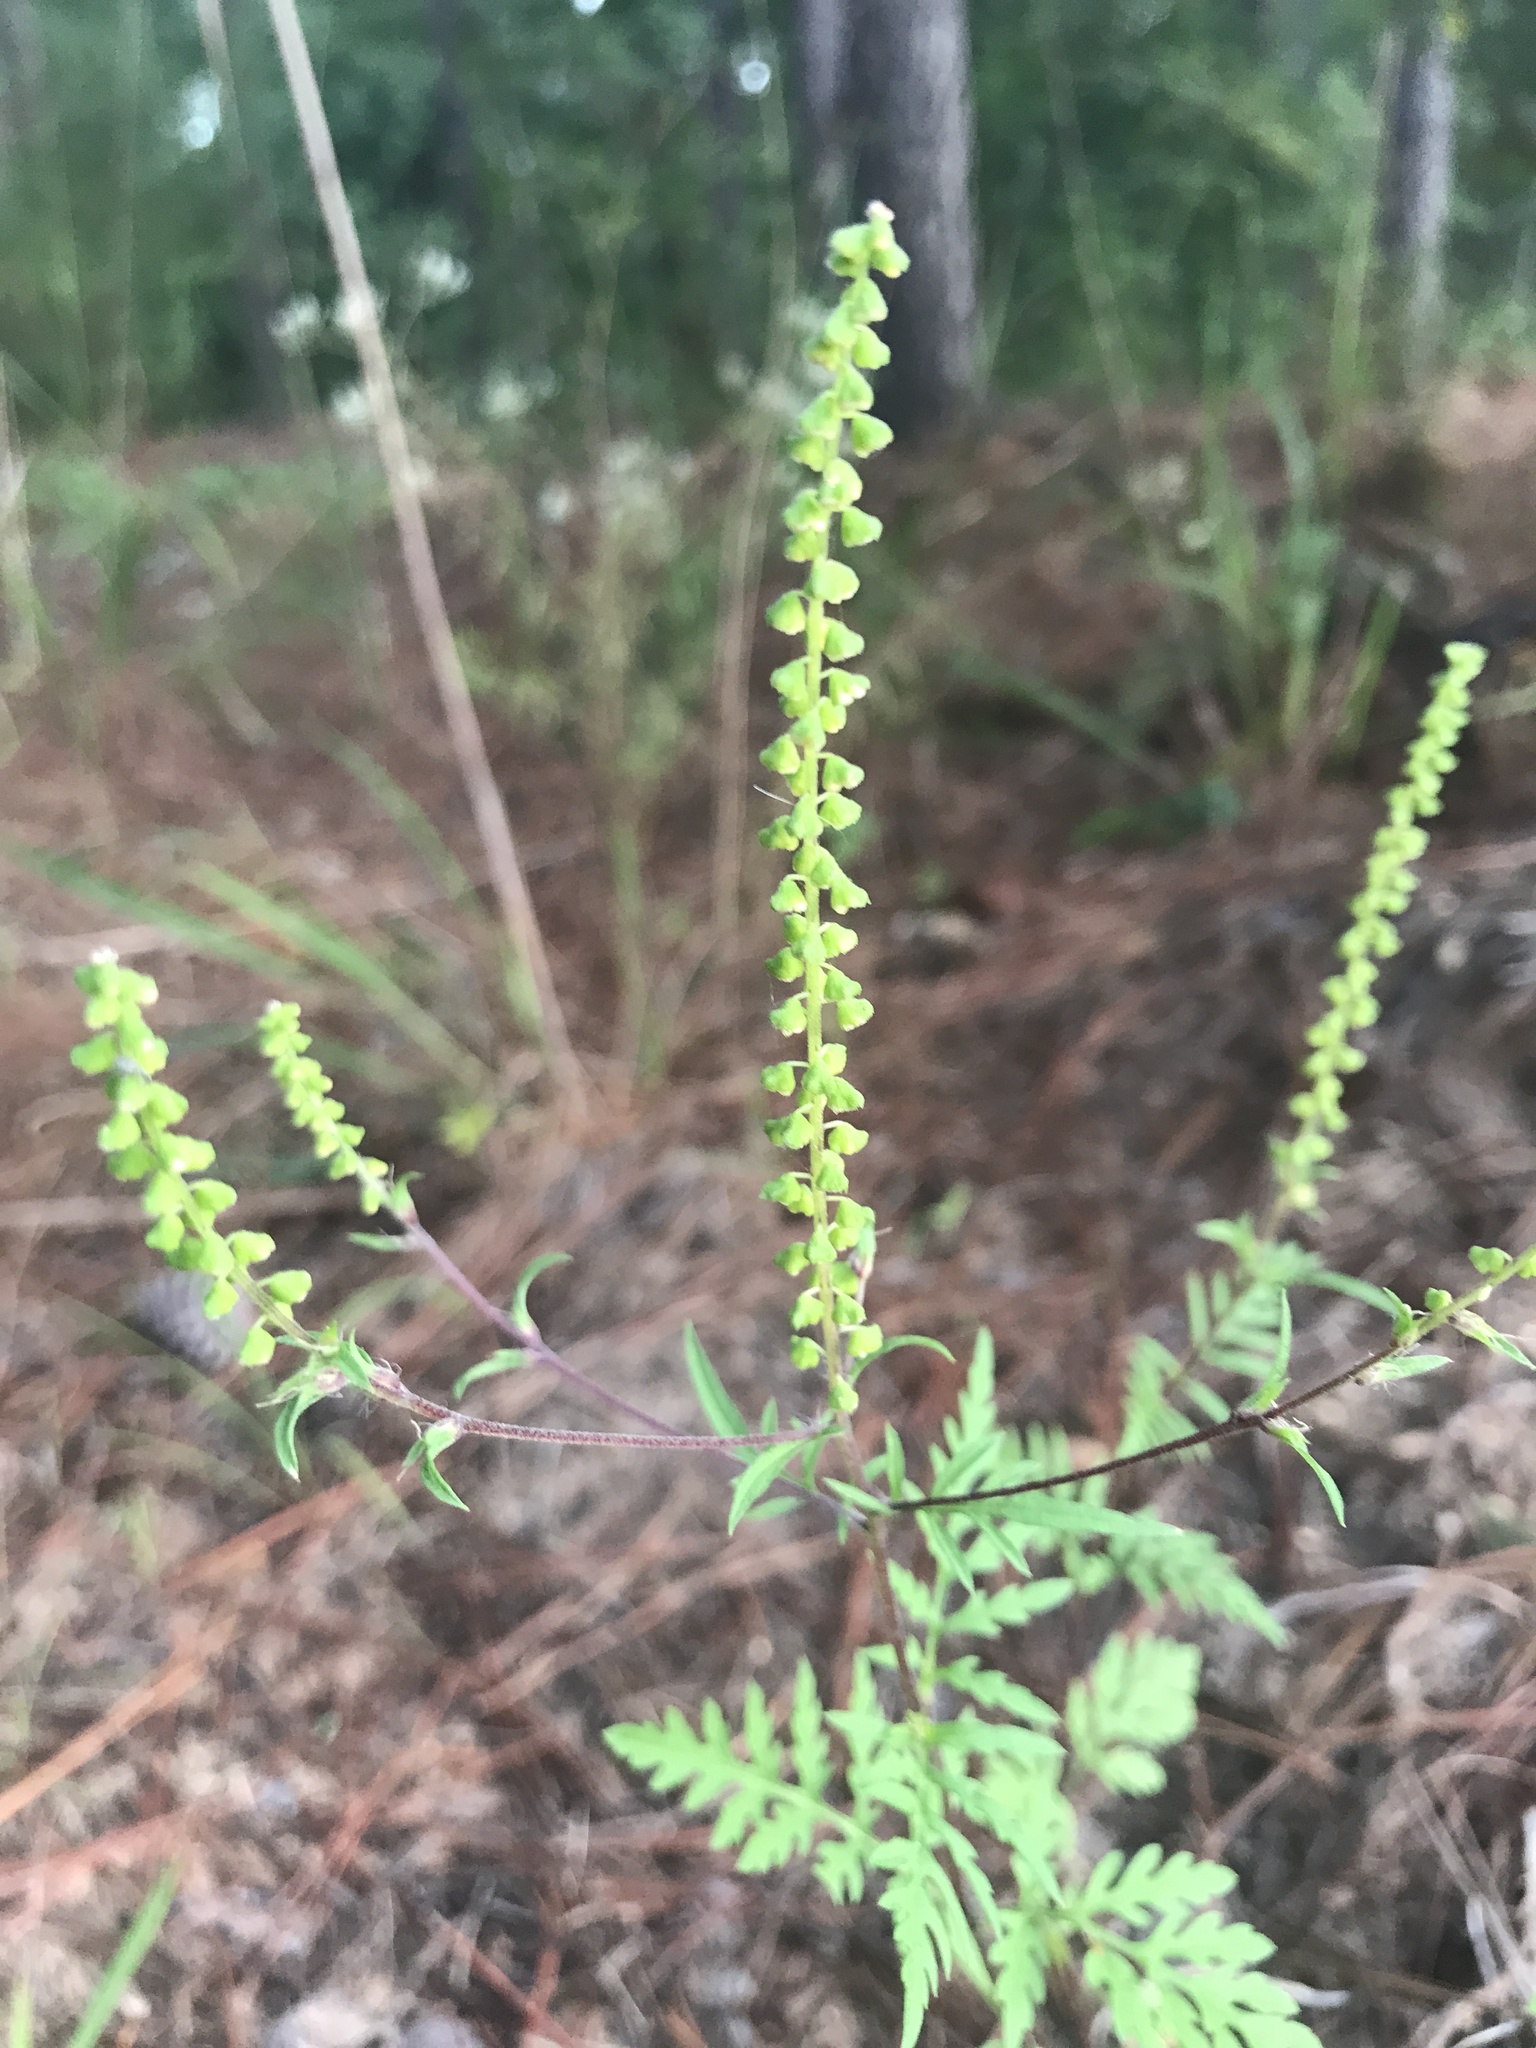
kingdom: Plantae
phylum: Tracheophyta
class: Magnoliopsida
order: Asterales
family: Asteraceae
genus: Ambrosia
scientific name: Ambrosia artemisiifolia
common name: Annual ragweed
